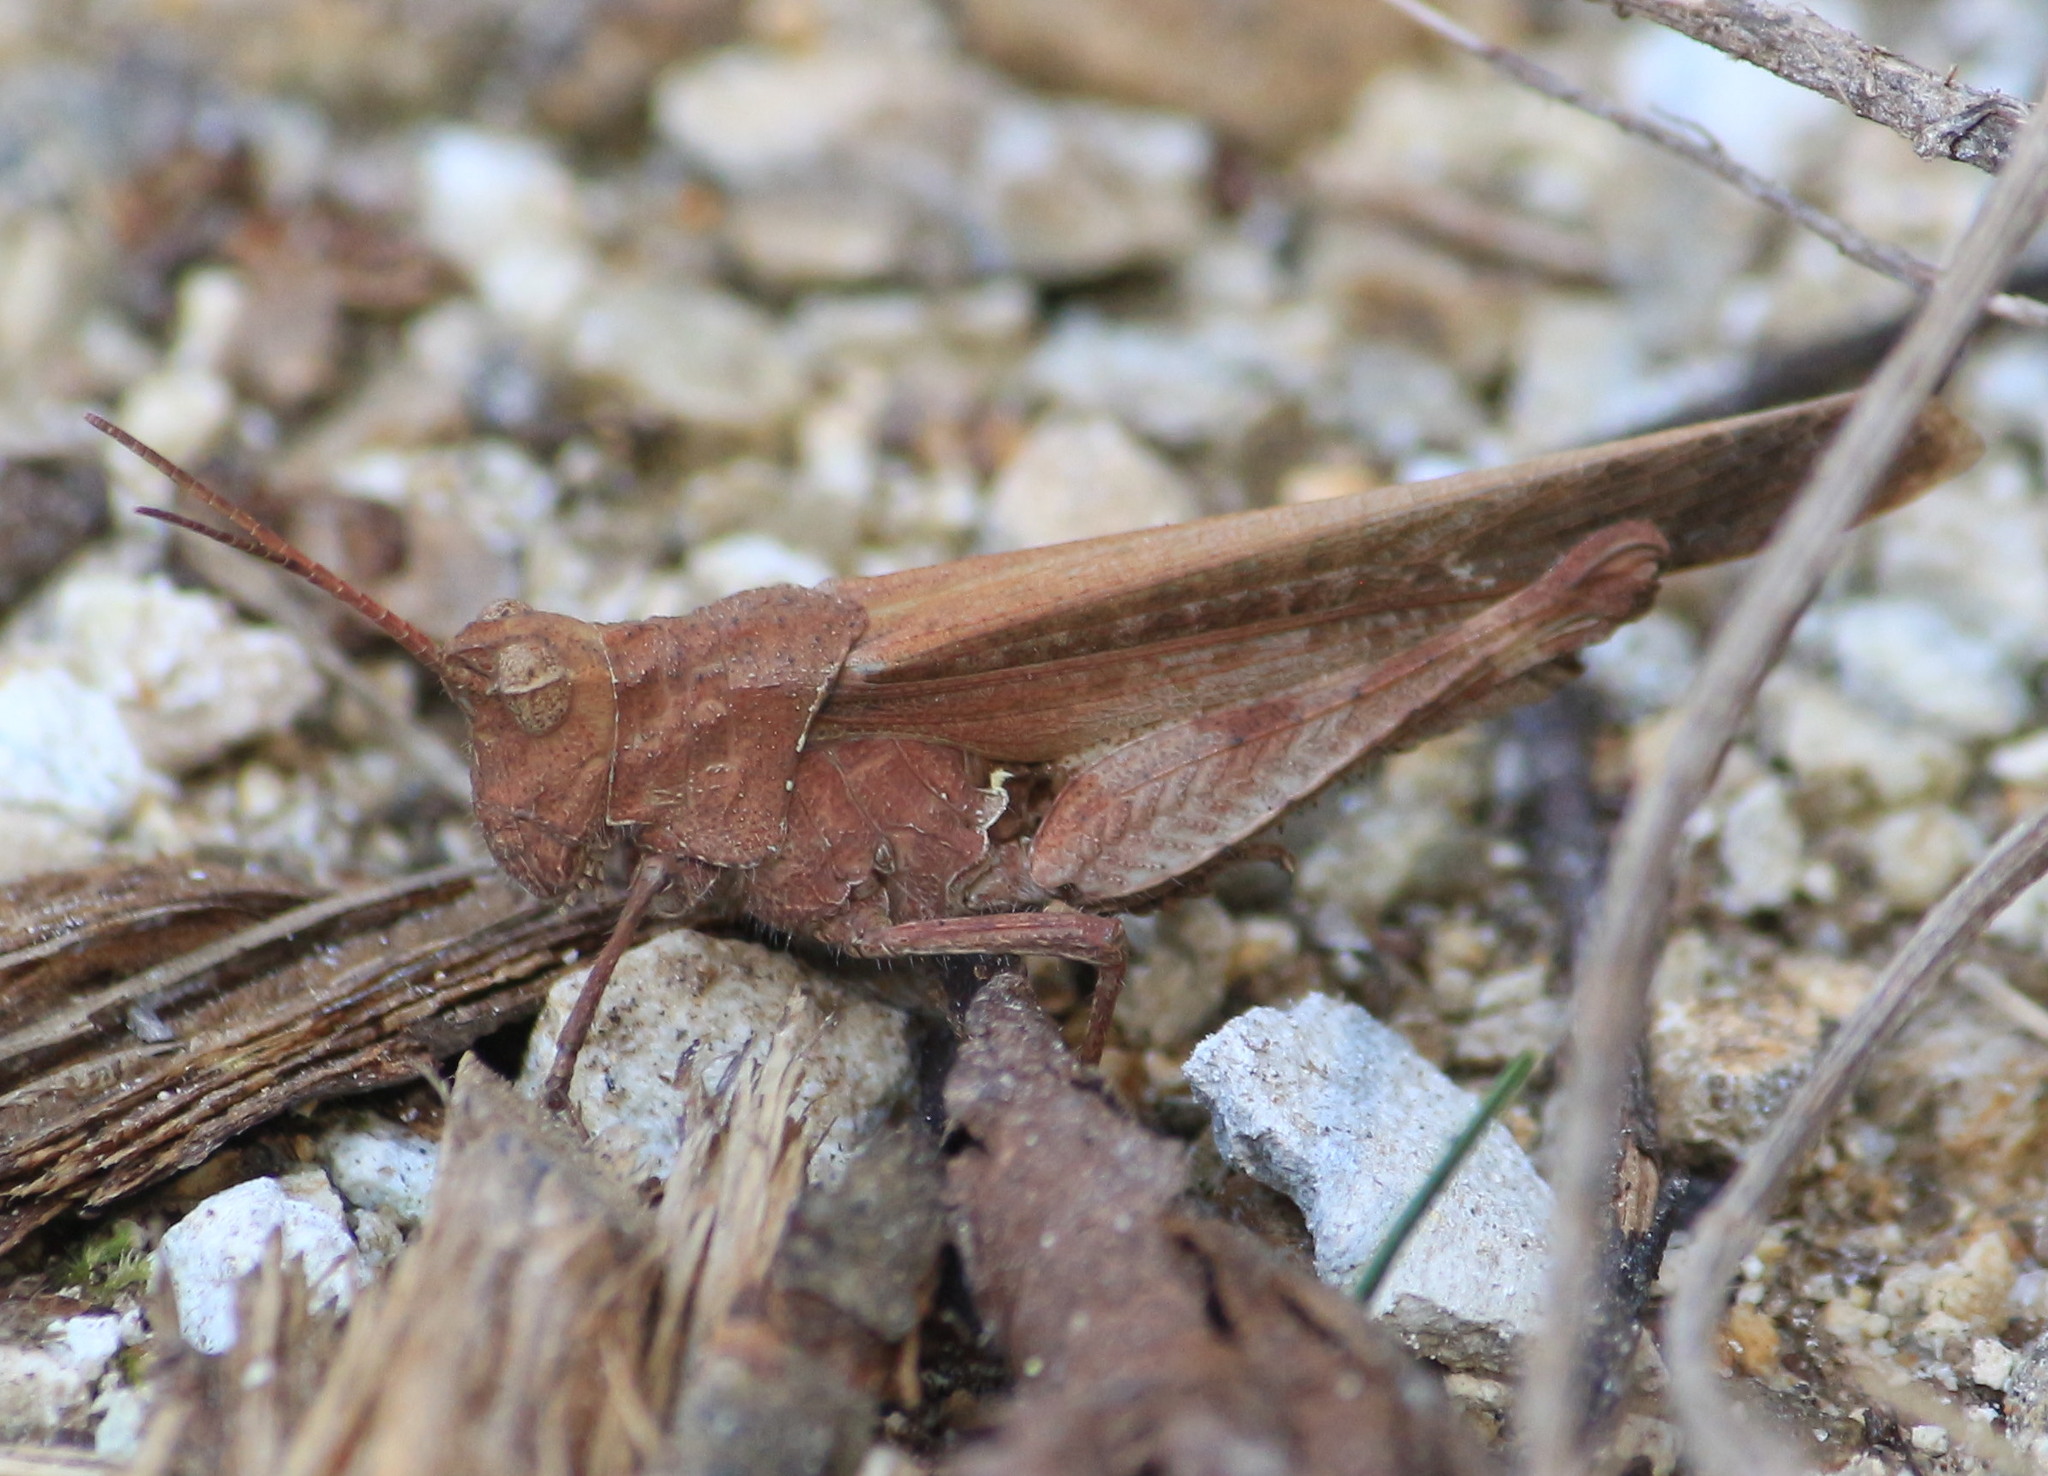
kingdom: Animalia
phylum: Arthropoda
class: Insecta
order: Orthoptera
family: Acrididae
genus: Machaerocera
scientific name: Machaerocera mexicana
